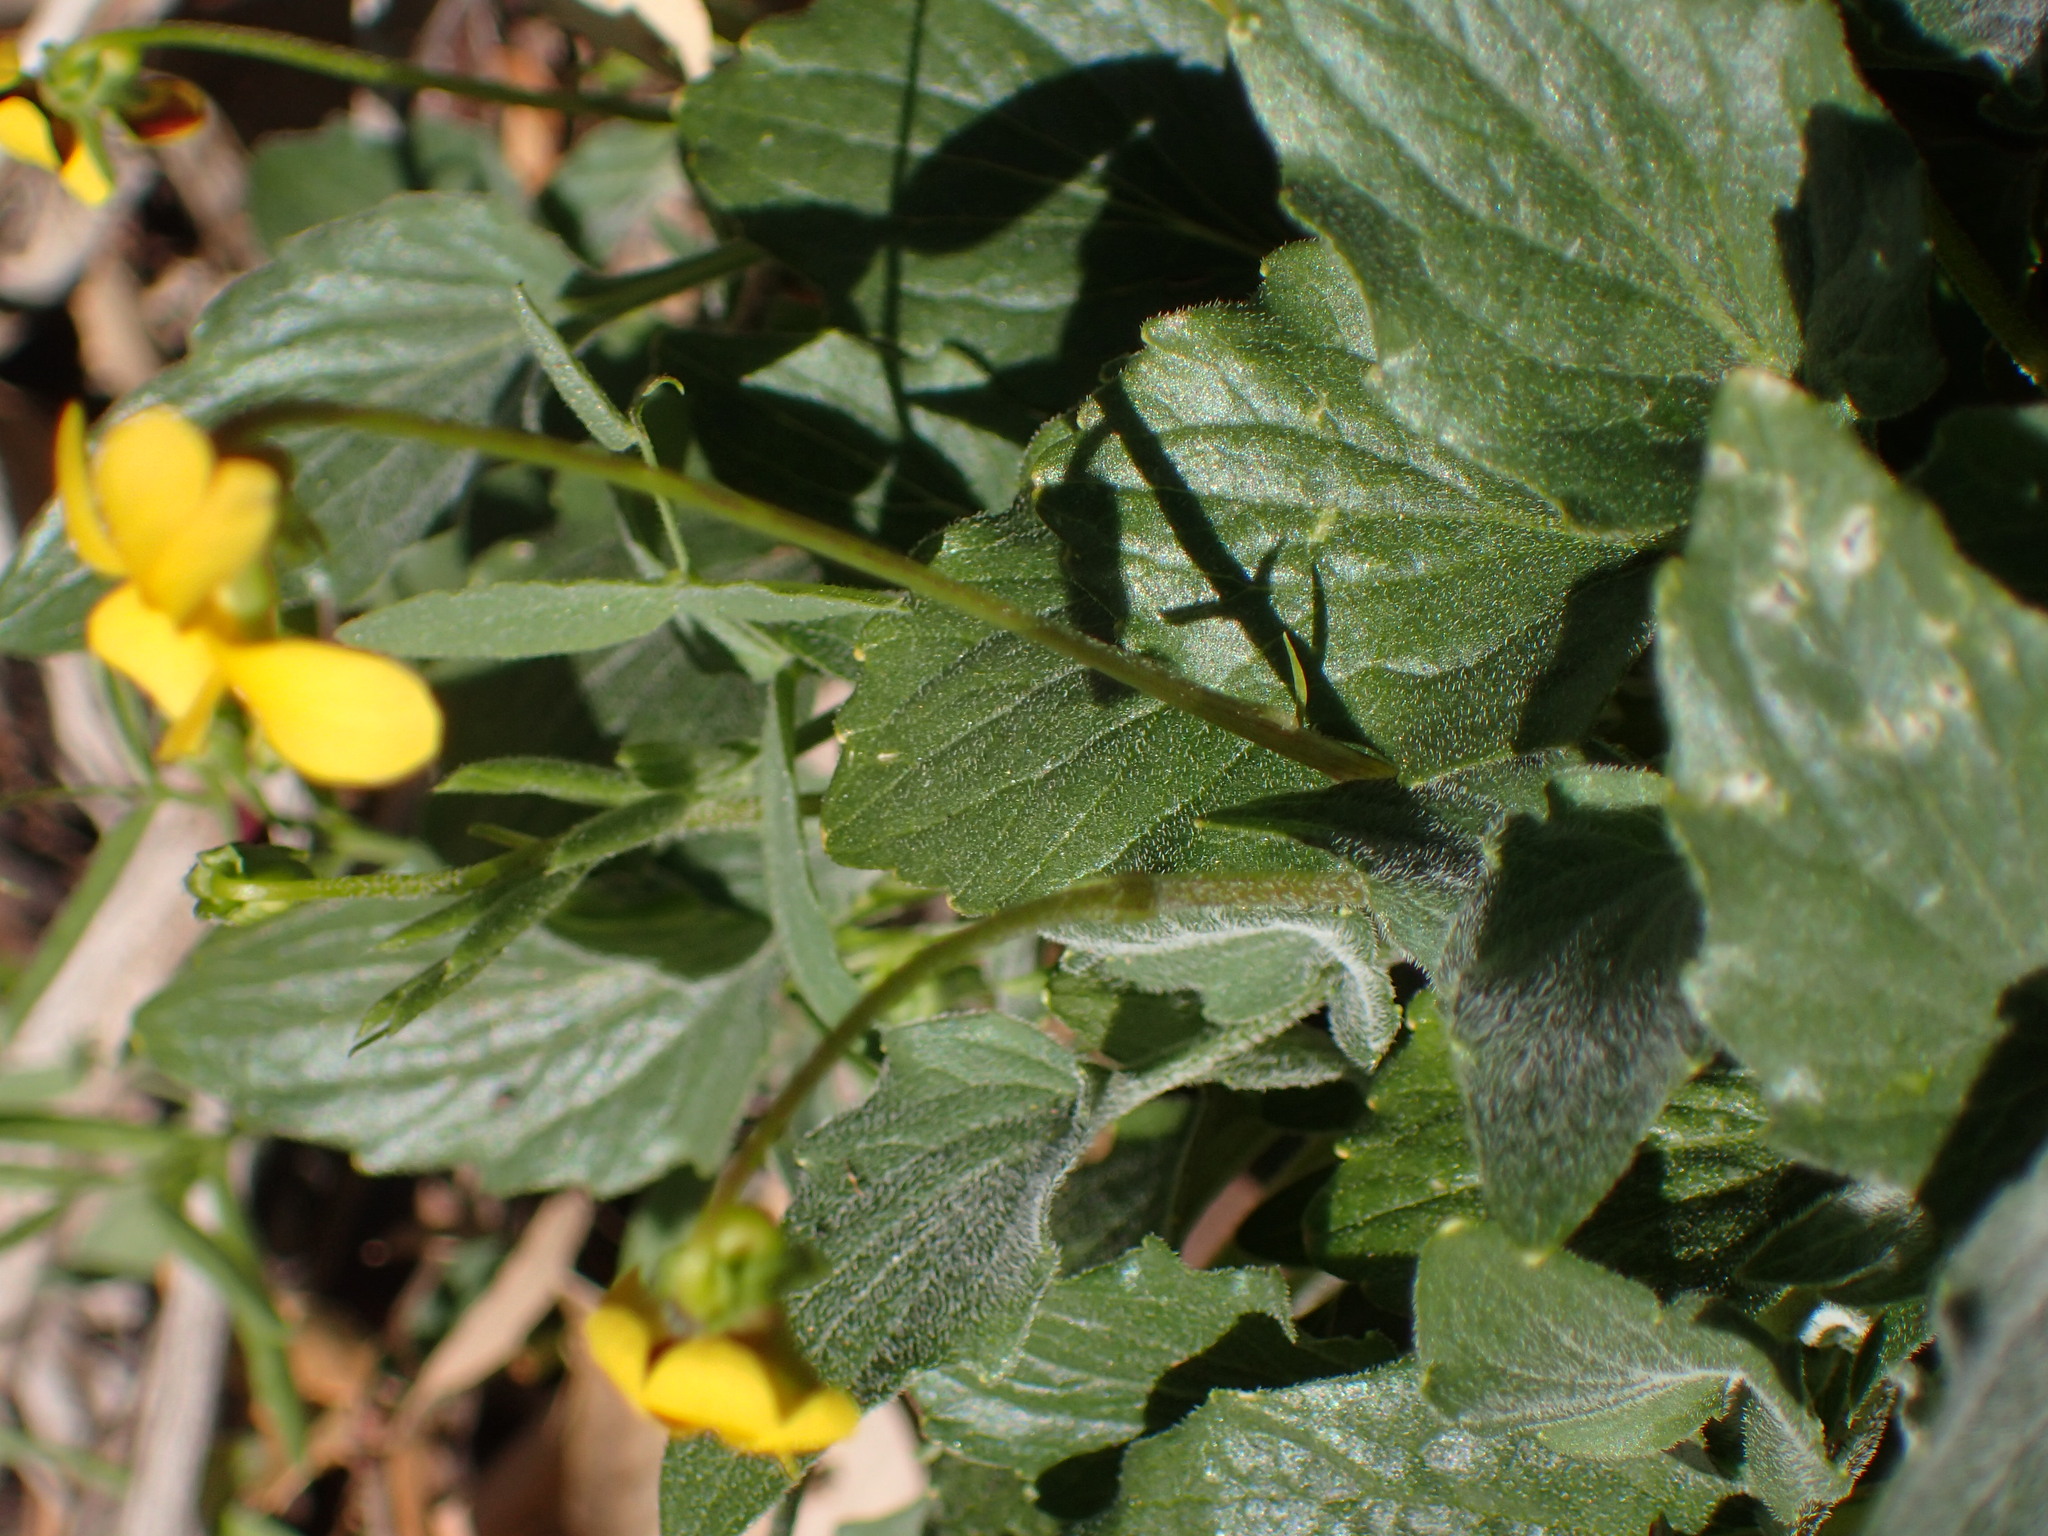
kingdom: Plantae
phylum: Tracheophyta
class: Magnoliopsida
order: Malpighiales
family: Violaceae
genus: Viola
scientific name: Viola purpurea
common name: Pine violet
